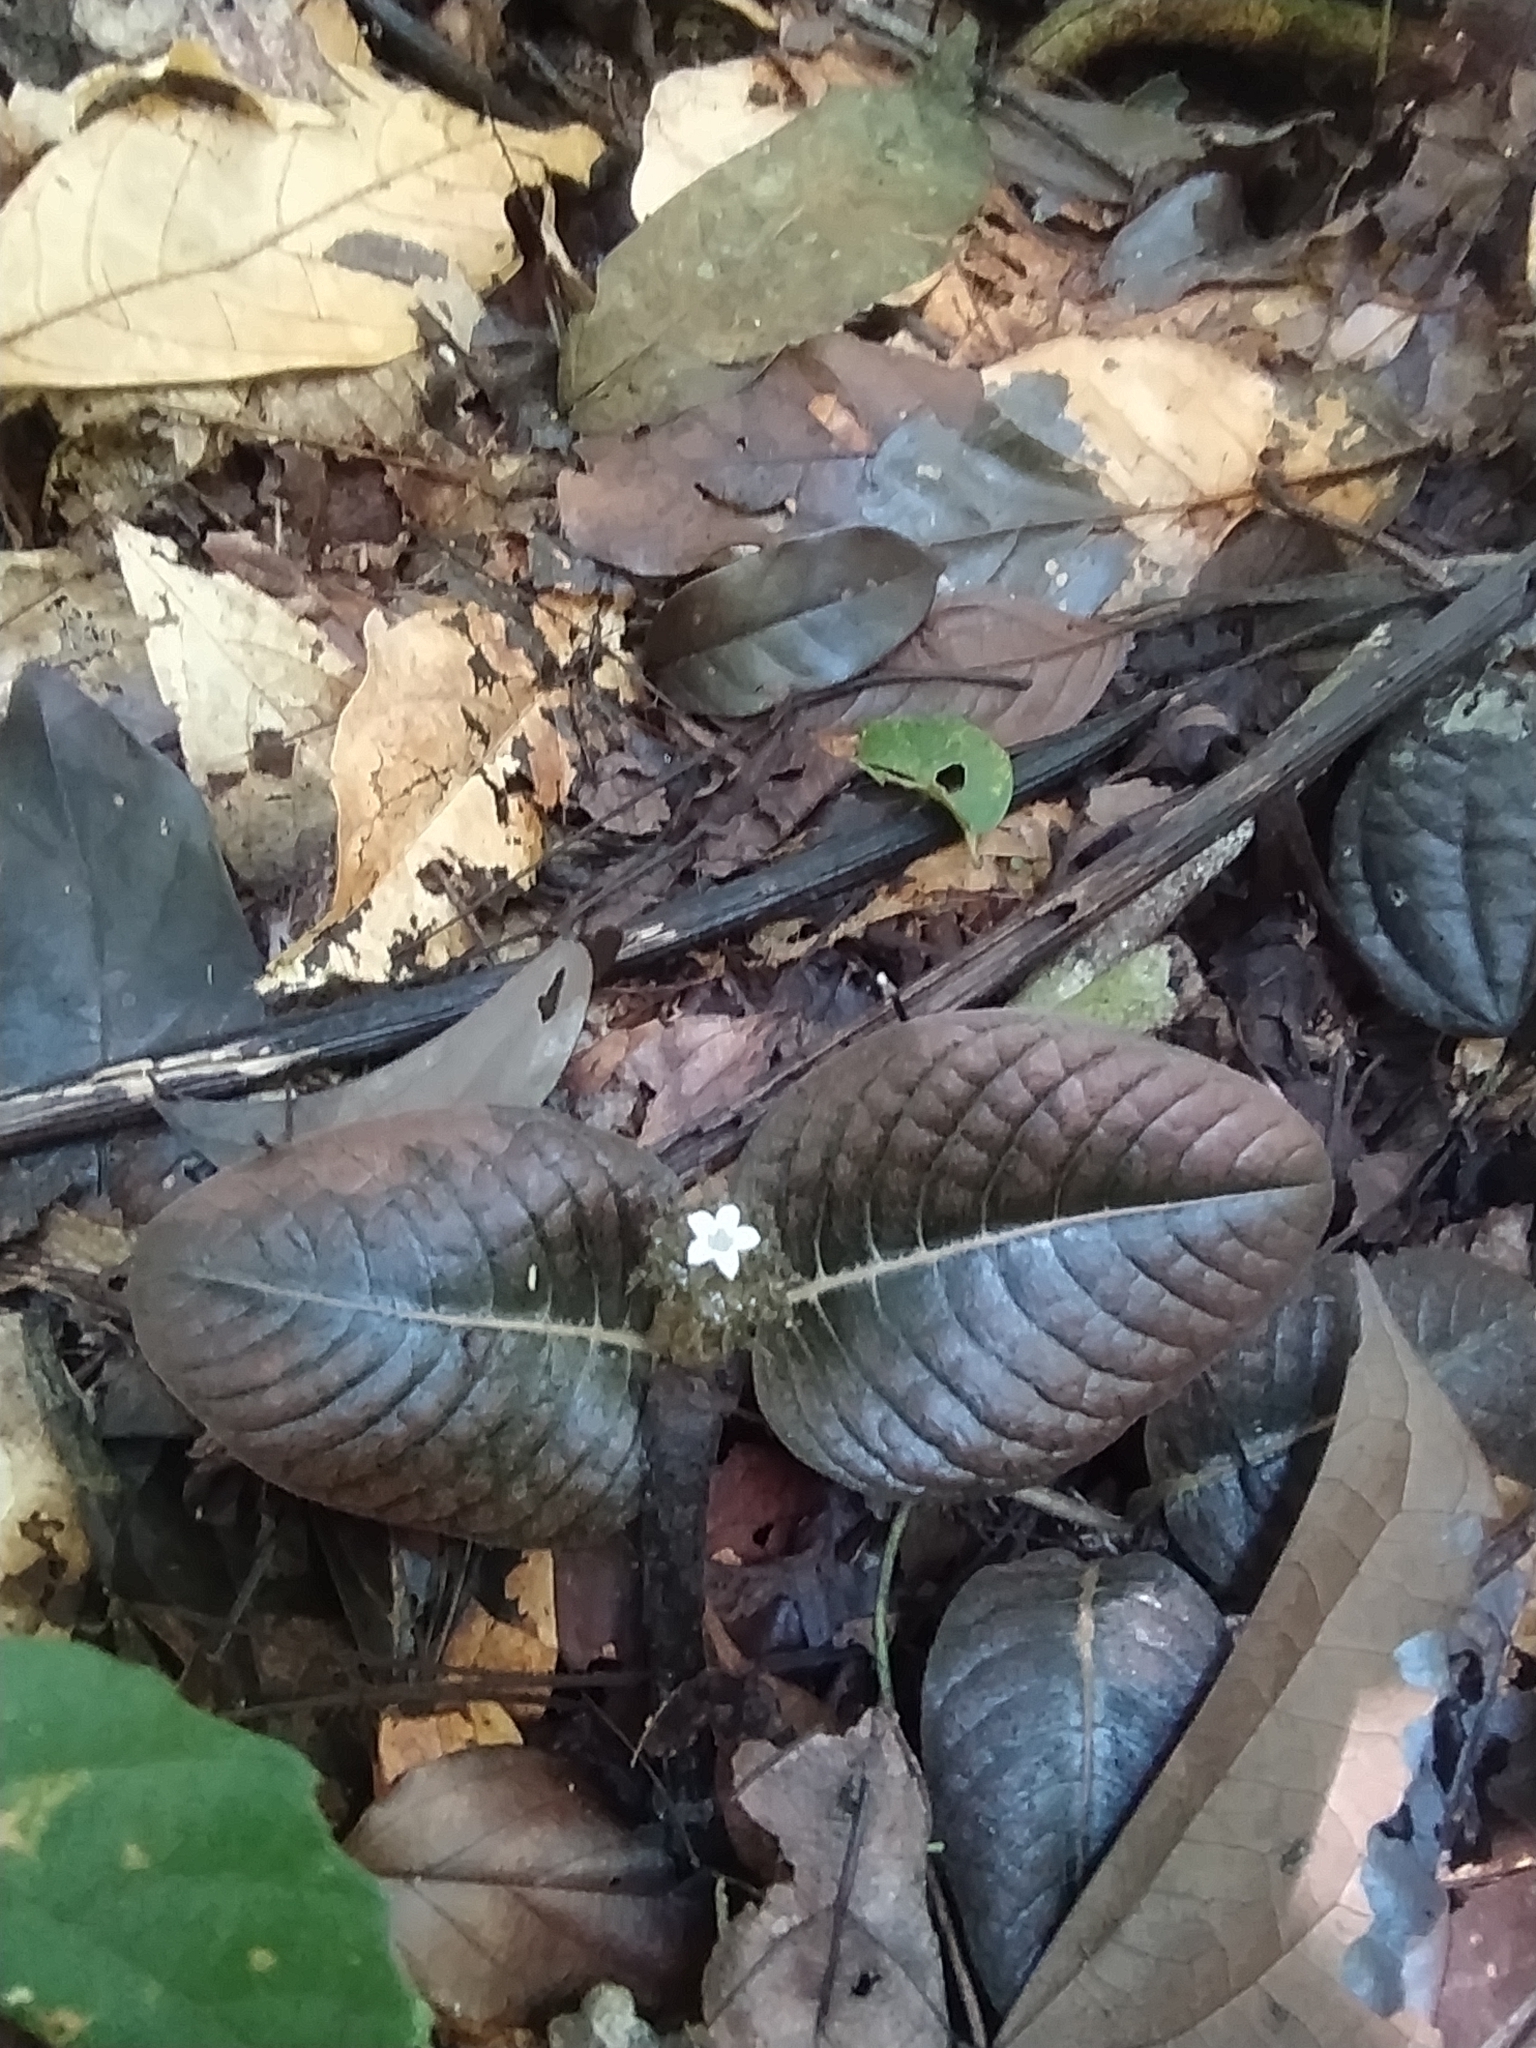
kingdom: Plantae
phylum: Tracheophyta
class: Magnoliopsida
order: Gentianales
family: Rubiaceae
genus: Palicourea
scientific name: Palicourea alba
